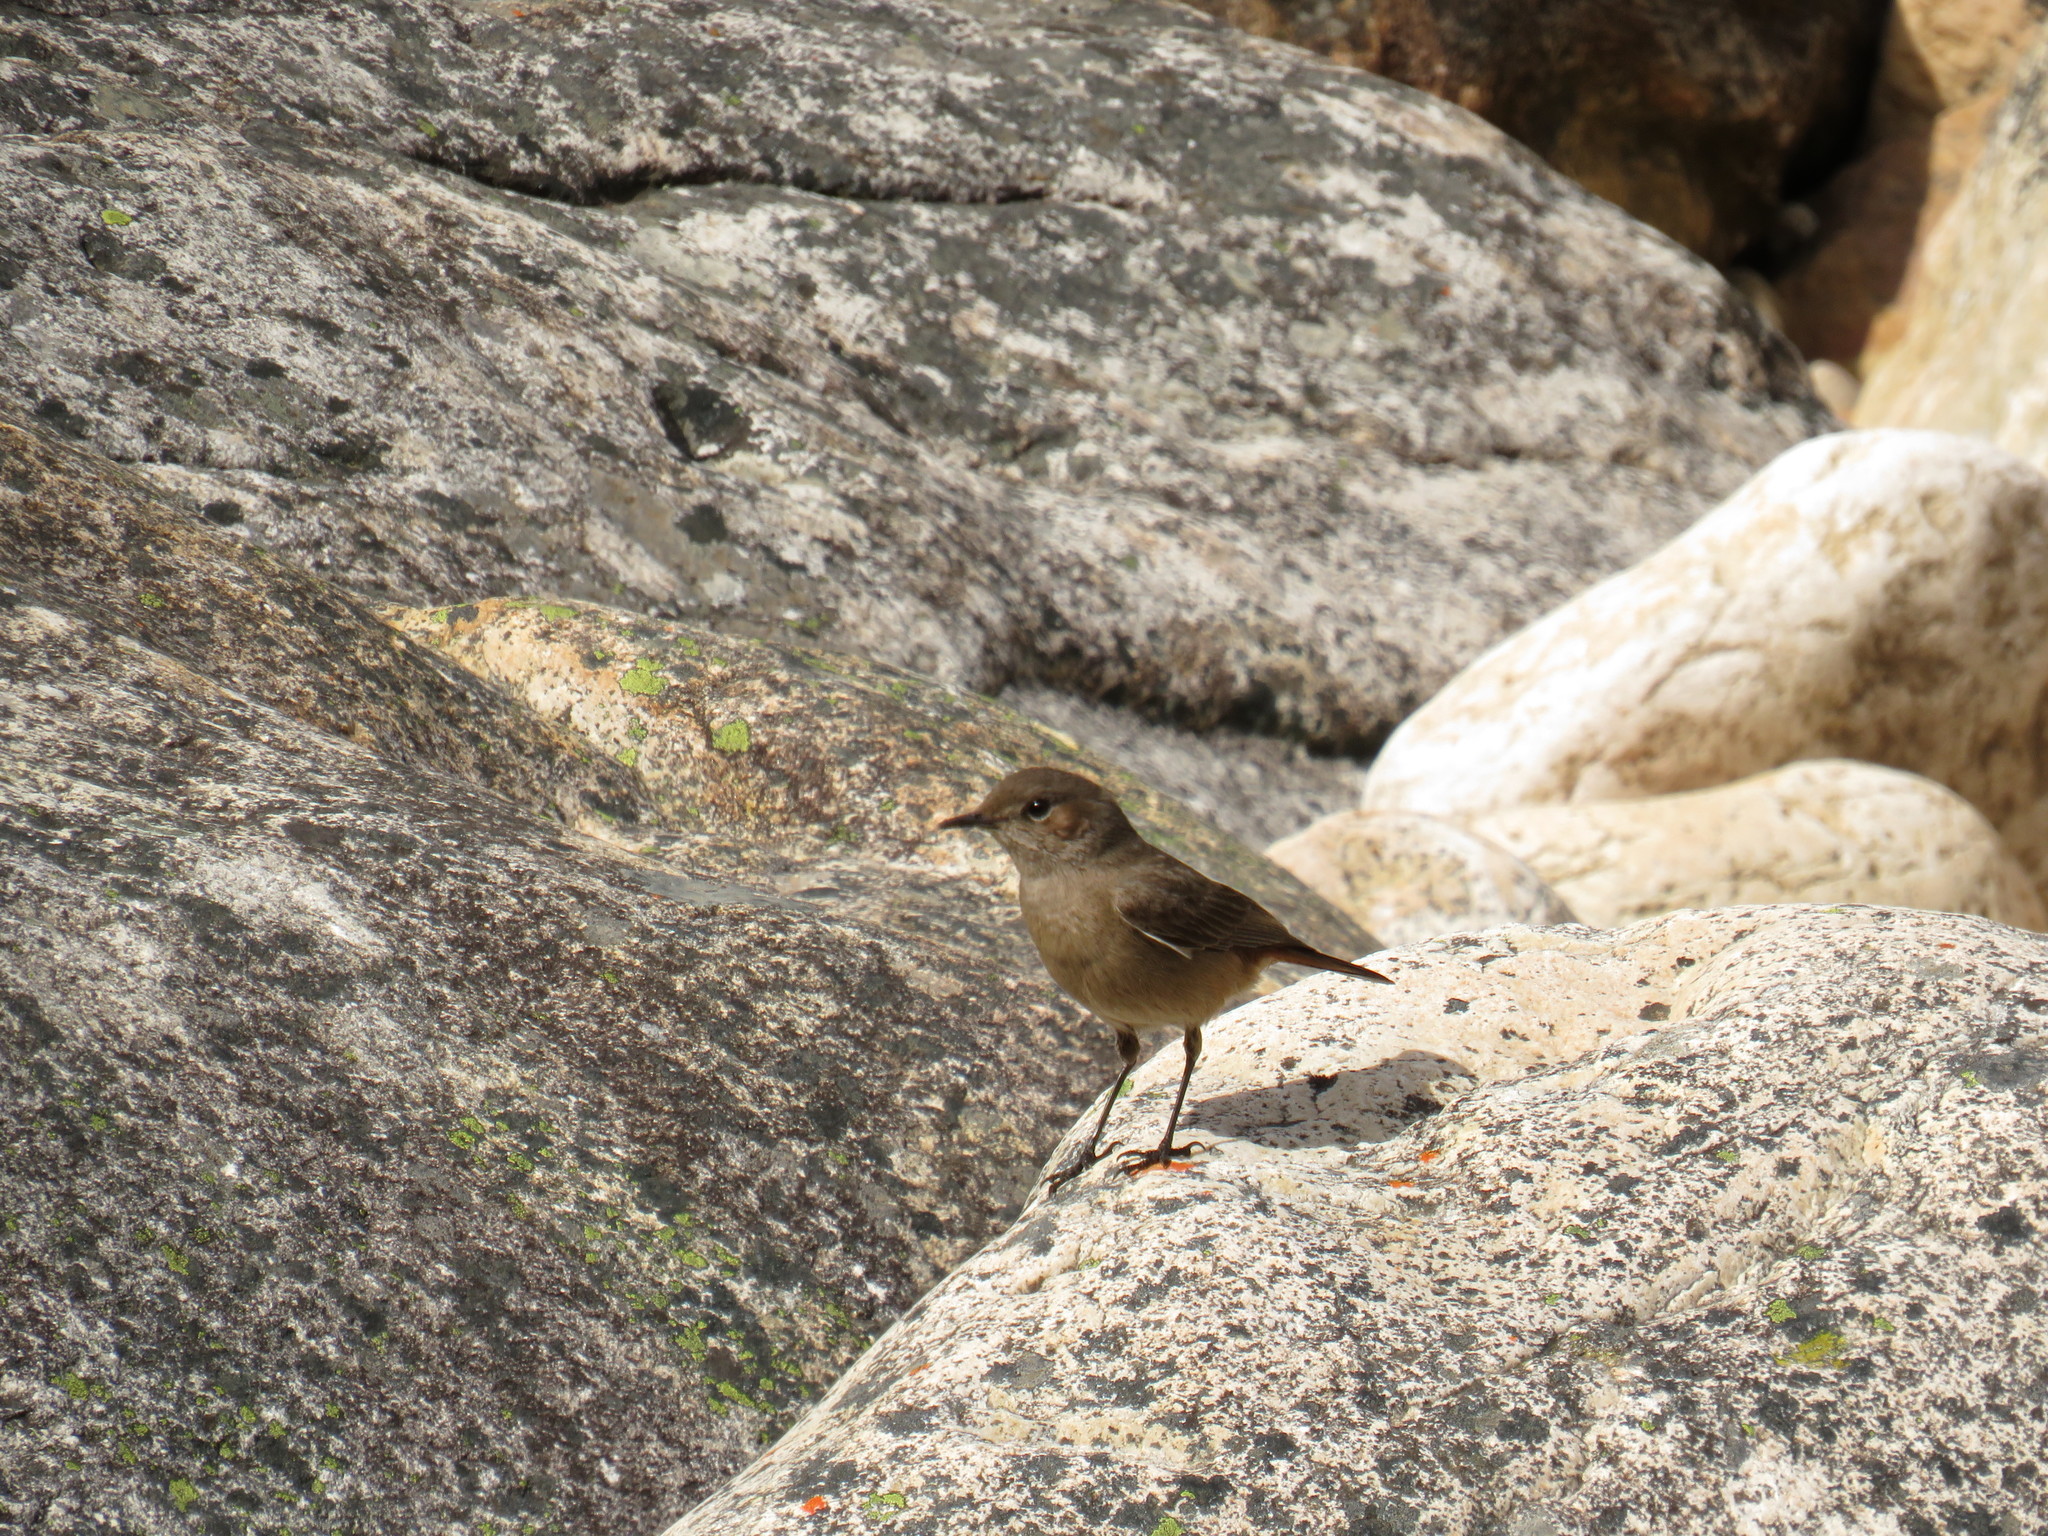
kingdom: Animalia
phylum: Chordata
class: Aves
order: Passeriformes
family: Muscicapidae
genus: Oenanthe
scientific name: Oenanthe familiaris
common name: Familiar chat
